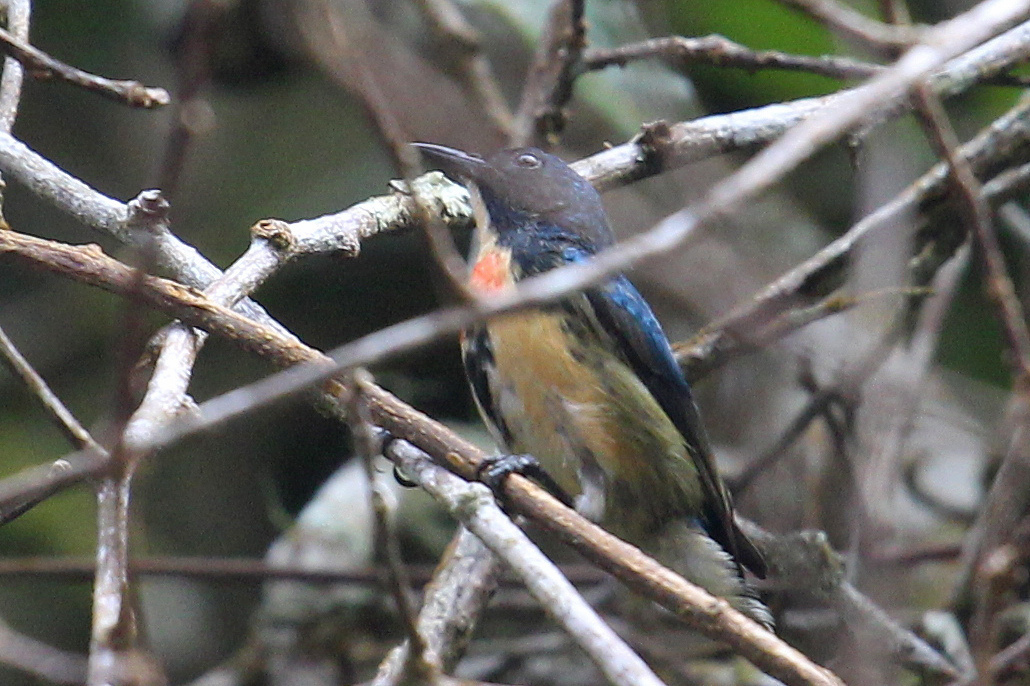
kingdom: Animalia
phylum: Chordata
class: Aves
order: Passeriformes
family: Dicaeidae
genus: Dicaeum
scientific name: Dicaeum ignipectus
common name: Fire-breasted flowerpecker
